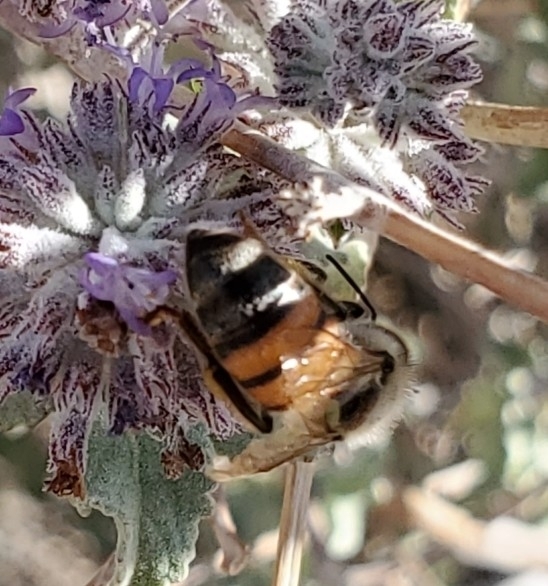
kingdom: Animalia
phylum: Arthropoda
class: Insecta
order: Hymenoptera
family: Apidae
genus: Apis
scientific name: Apis mellifera
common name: Honey bee
